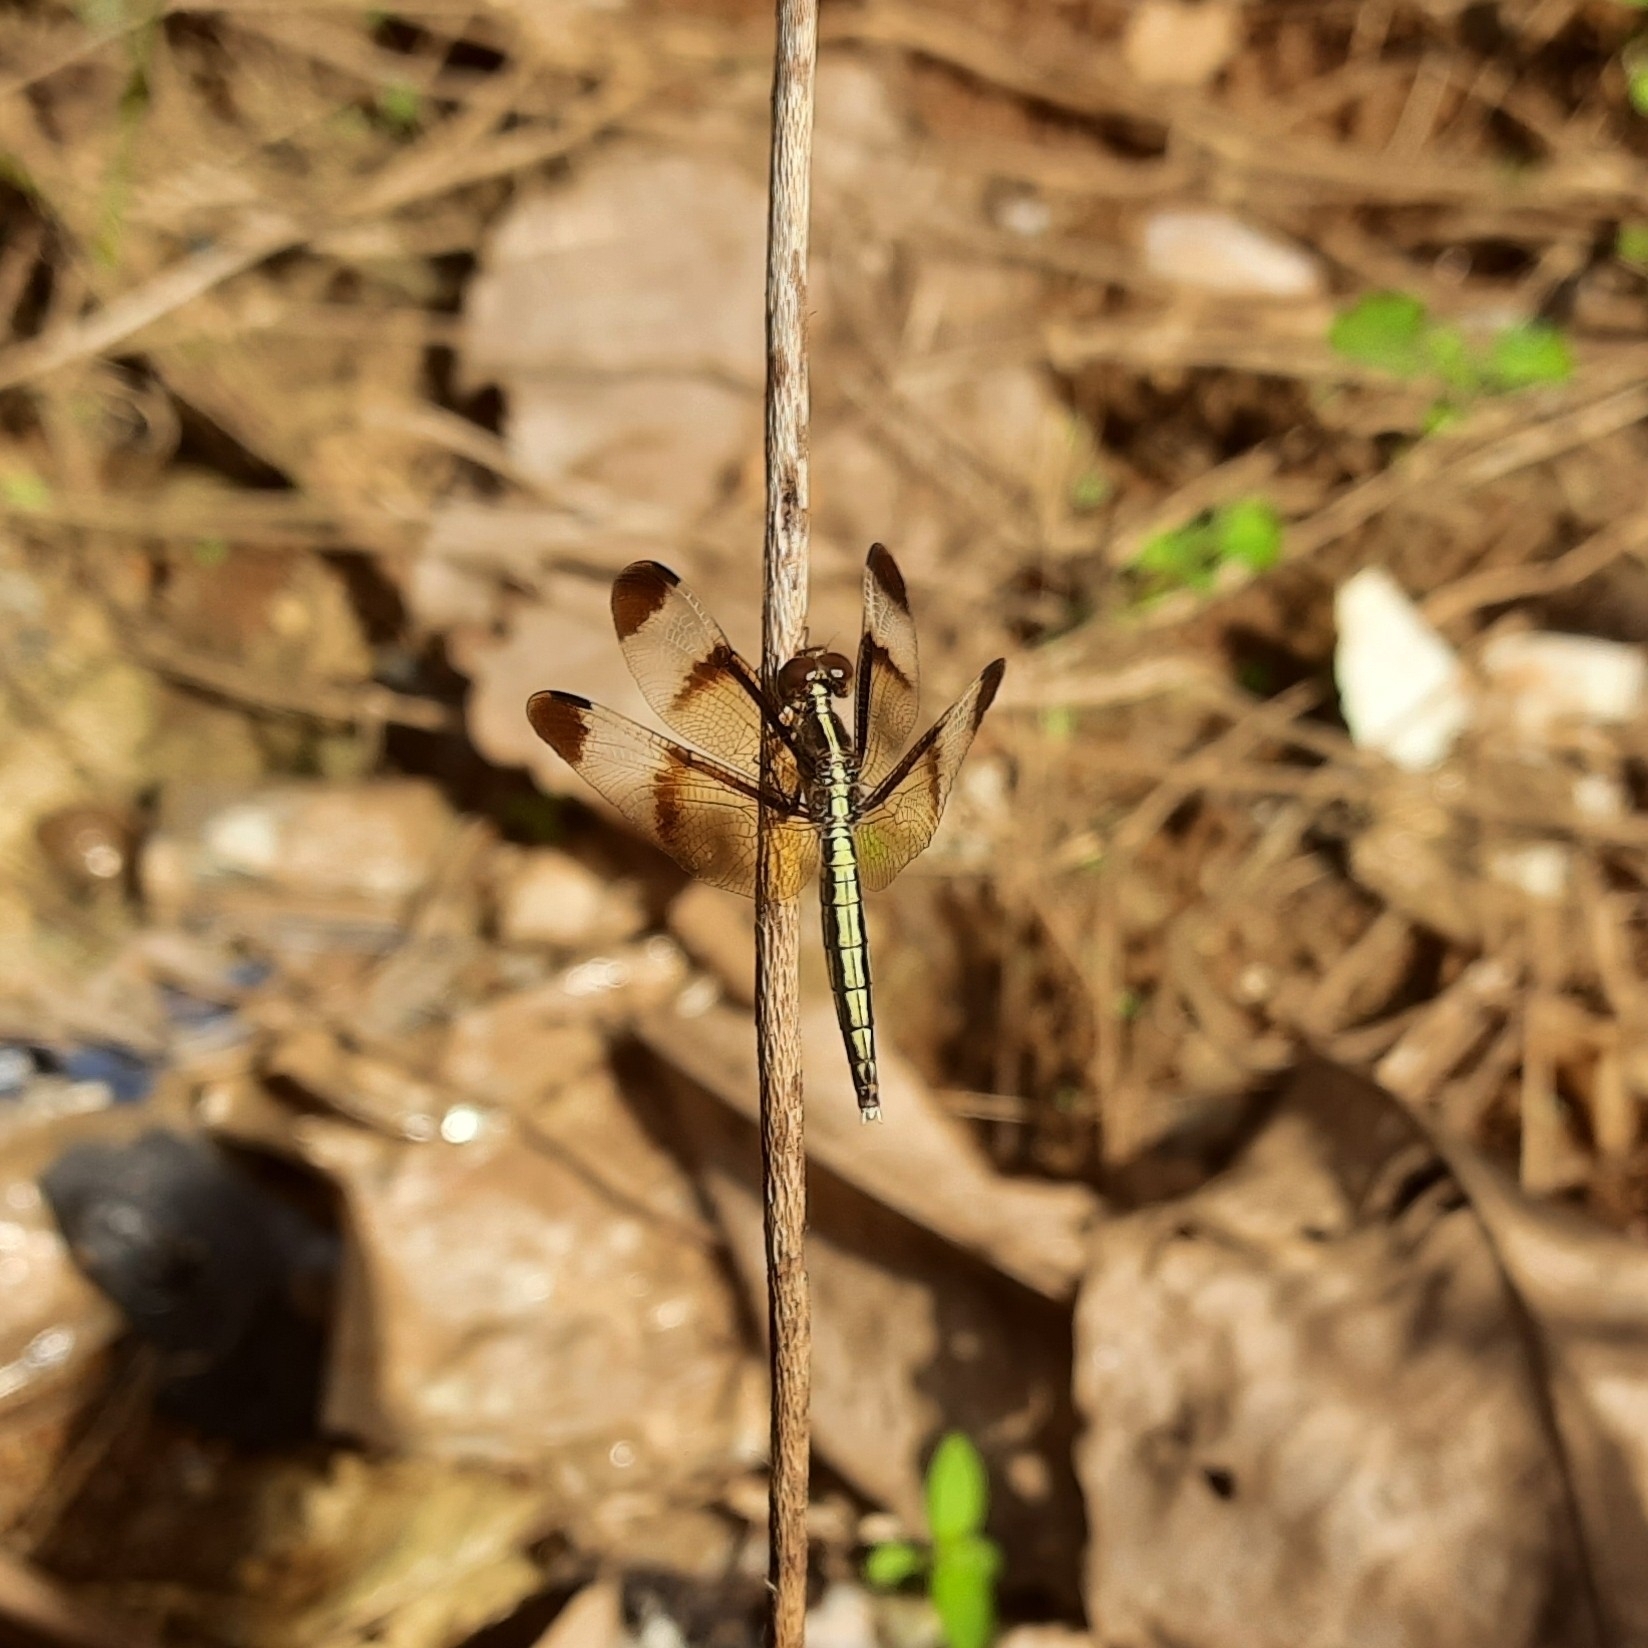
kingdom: Animalia
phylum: Arthropoda
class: Insecta
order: Odonata
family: Libellulidae
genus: Neurothemis
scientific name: Neurothemis tullia
